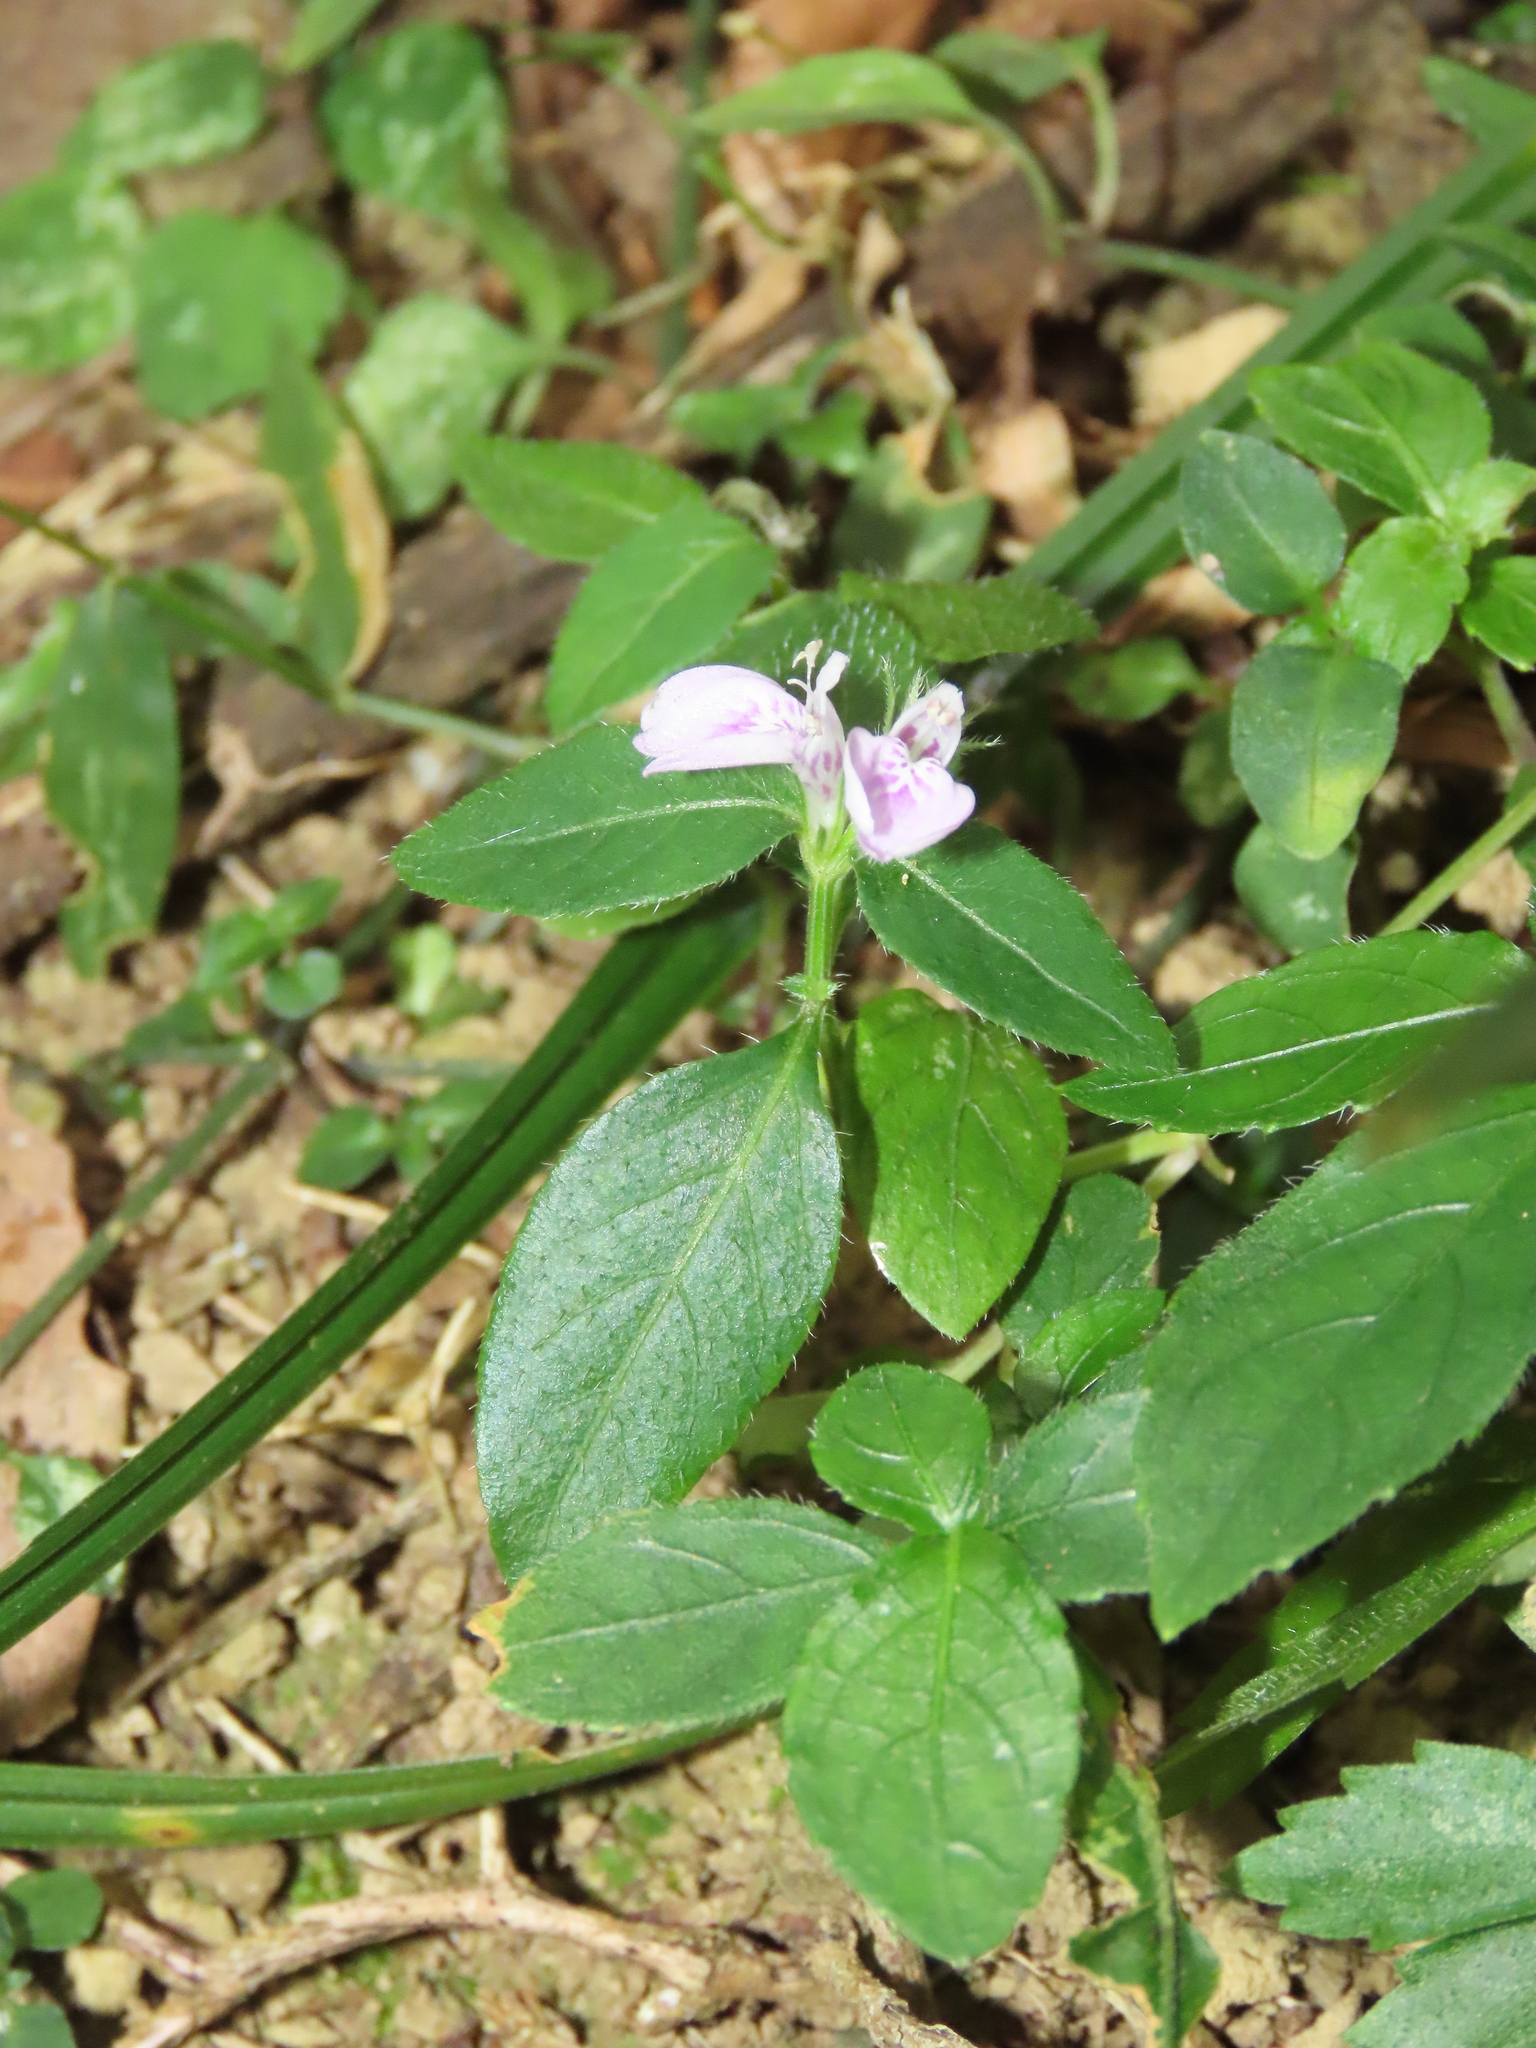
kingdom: Plantae
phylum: Tracheophyta
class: Magnoliopsida
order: Lamiales
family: Acanthaceae
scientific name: Acanthaceae
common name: Acanthaceae
